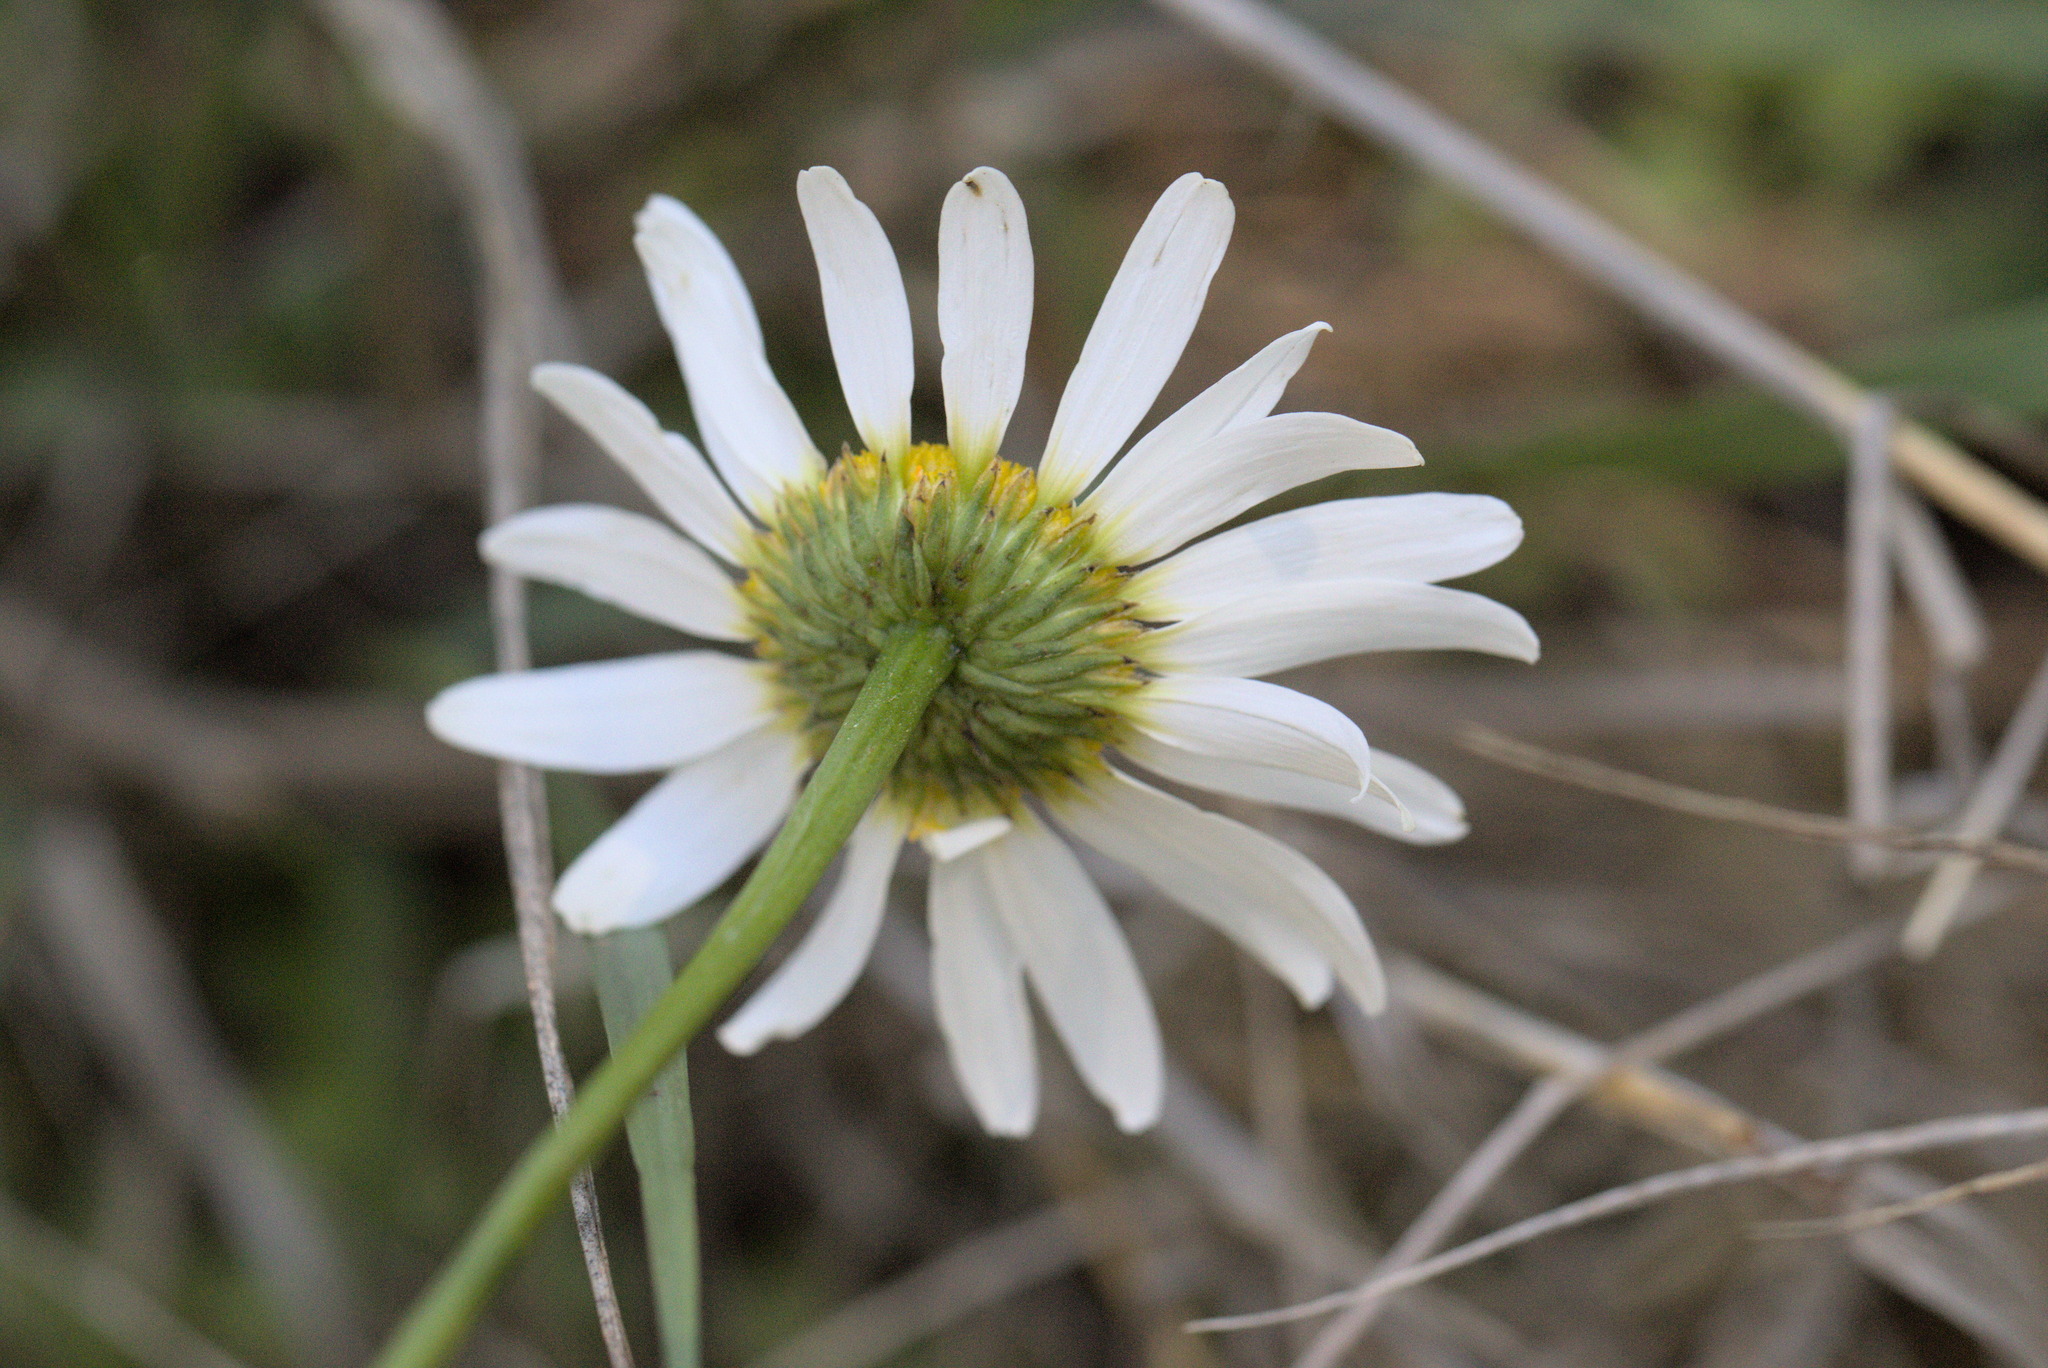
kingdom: Plantae
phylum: Tracheophyta
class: Magnoliopsida
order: Asterales
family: Asteraceae
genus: Leucanthemum
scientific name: Leucanthemum vulgare
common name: Oxeye daisy
